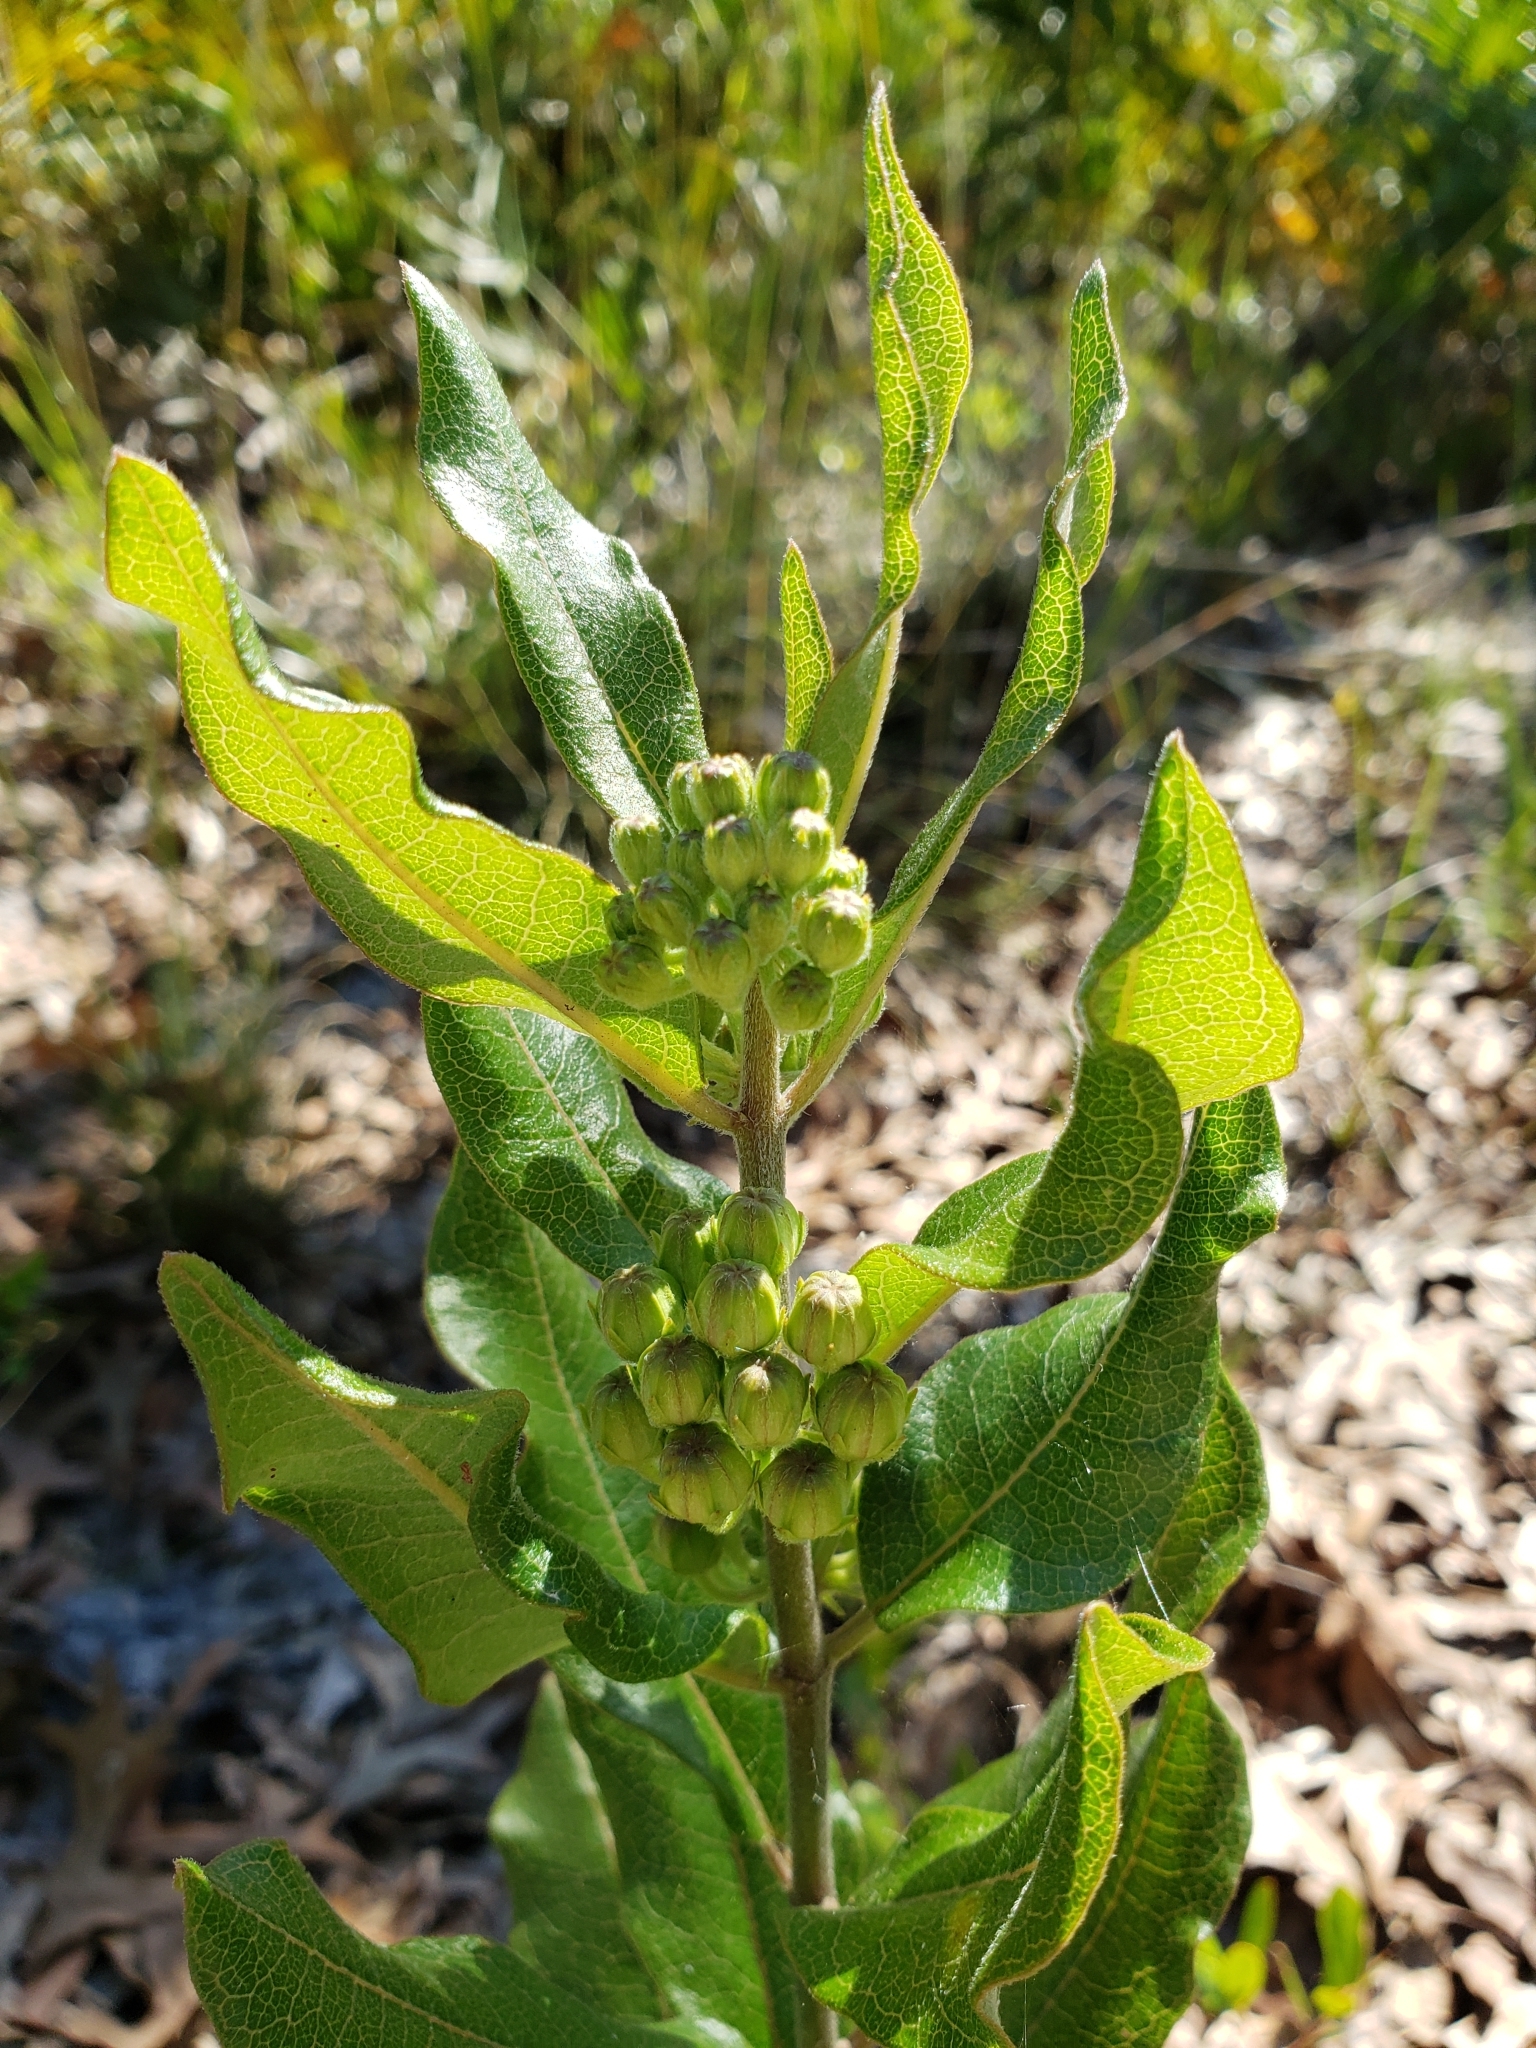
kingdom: Plantae
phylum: Tracheophyta
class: Magnoliopsida
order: Gentianales
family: Apocynaceae
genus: Asclepias
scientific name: Asclepias tomentosa
